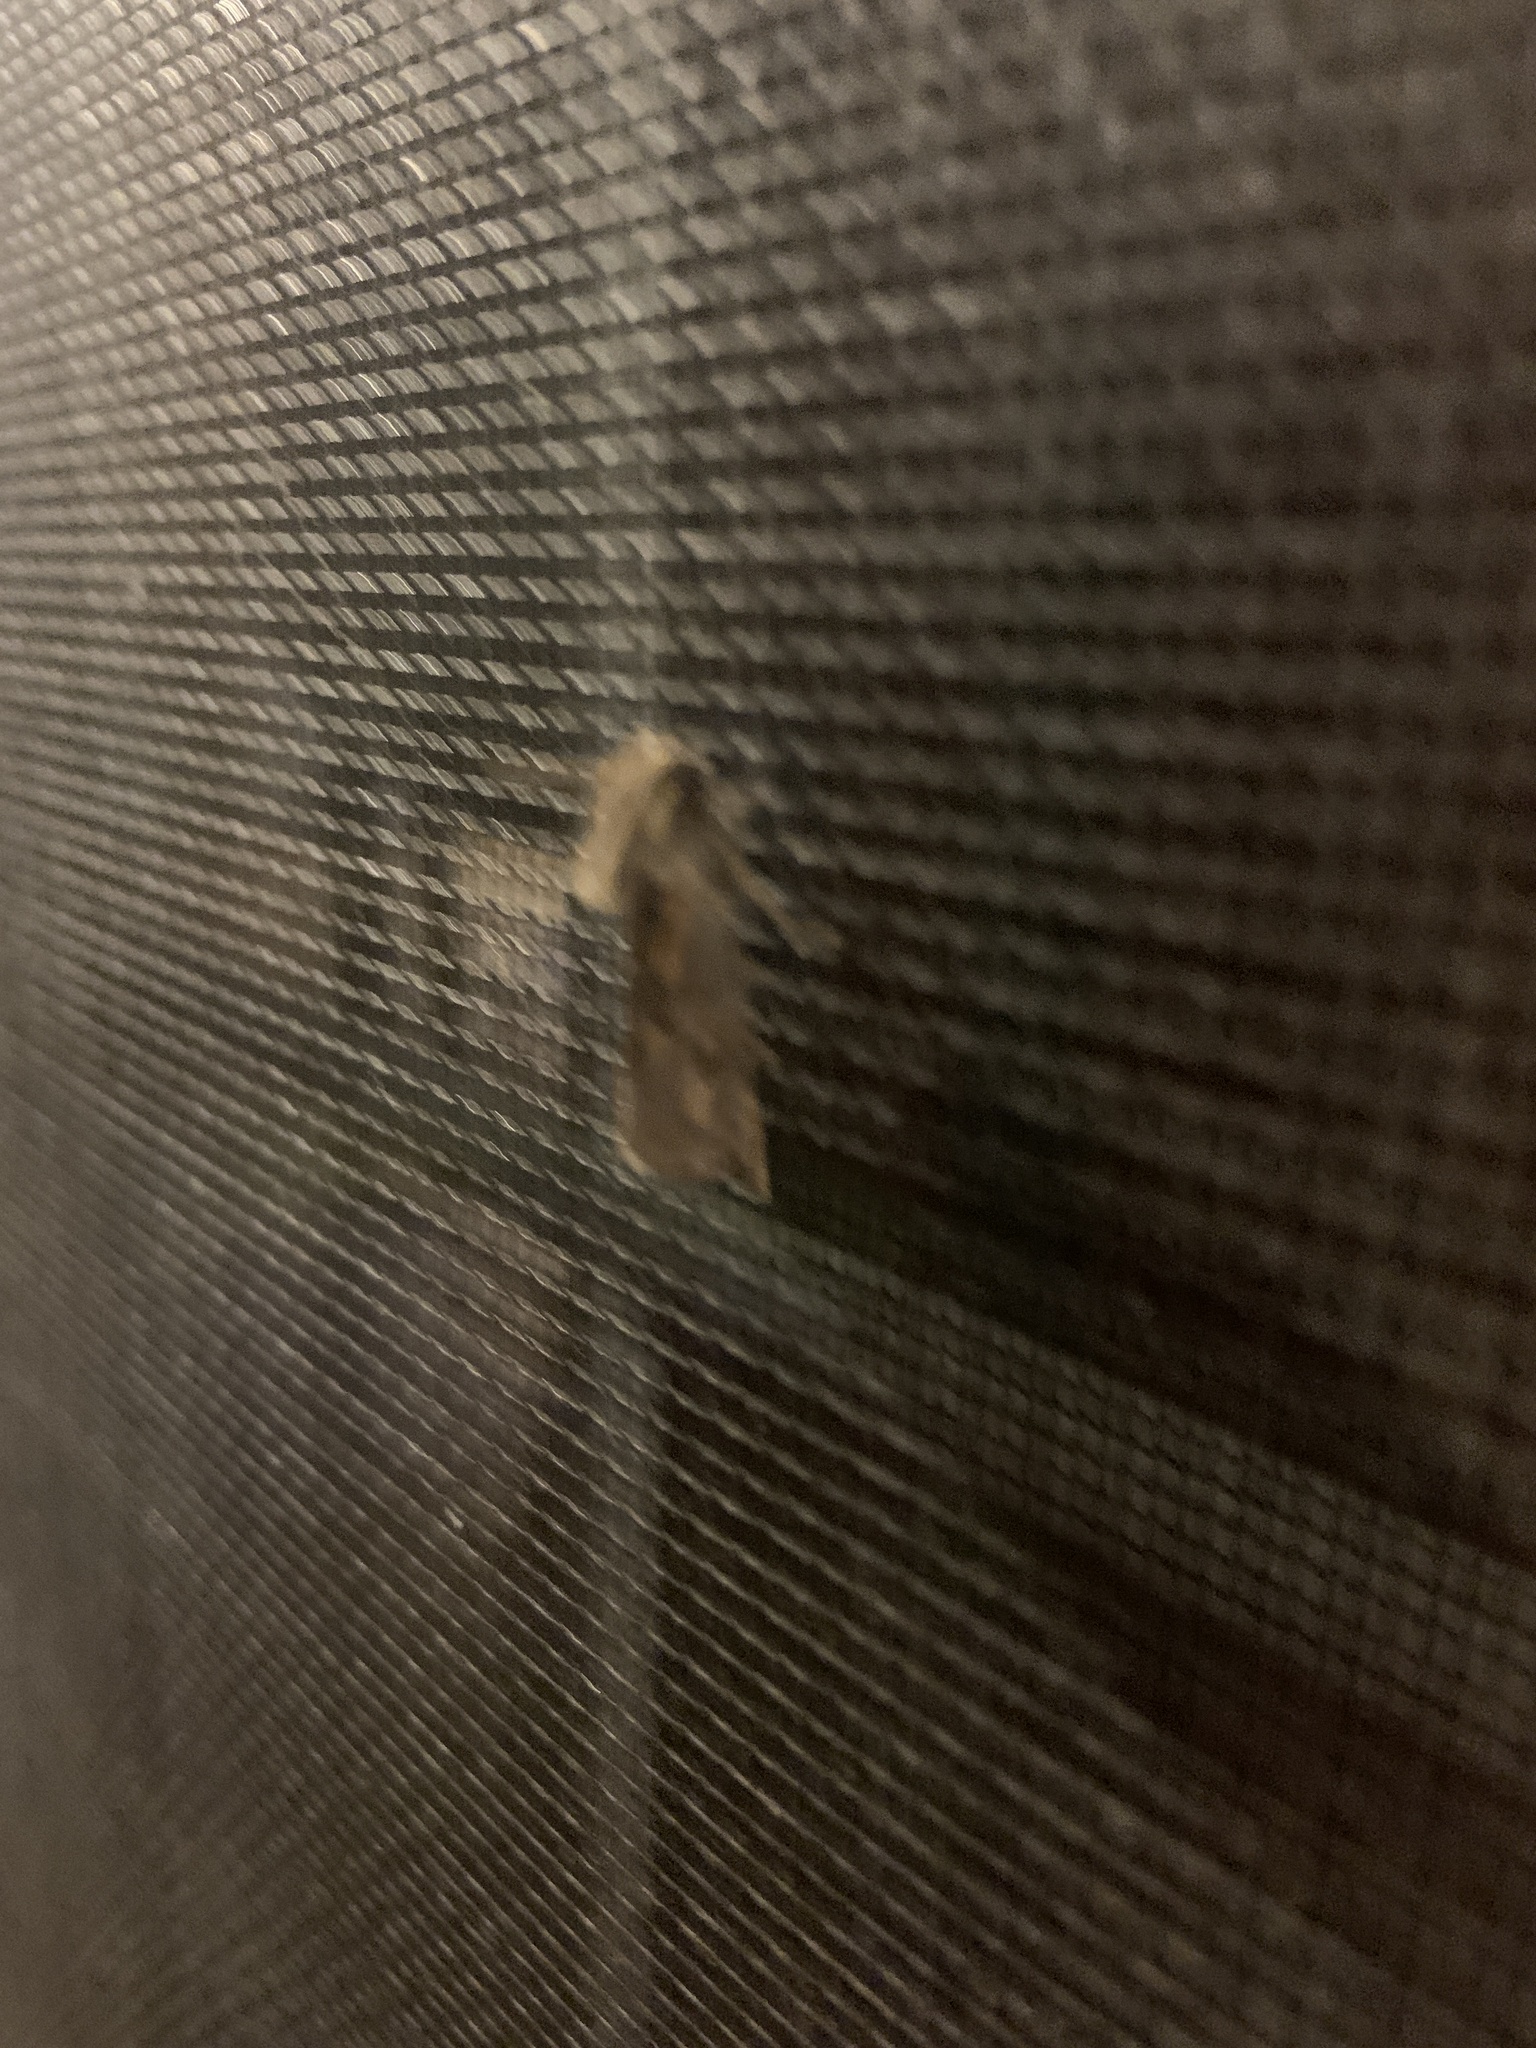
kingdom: Animalia
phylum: Arthropoda
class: Insecta
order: Lepidoptera
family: Tineidae
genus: Acrolophus
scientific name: Acrolophus popeanella
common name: Clemens' grass tubeworm moth
